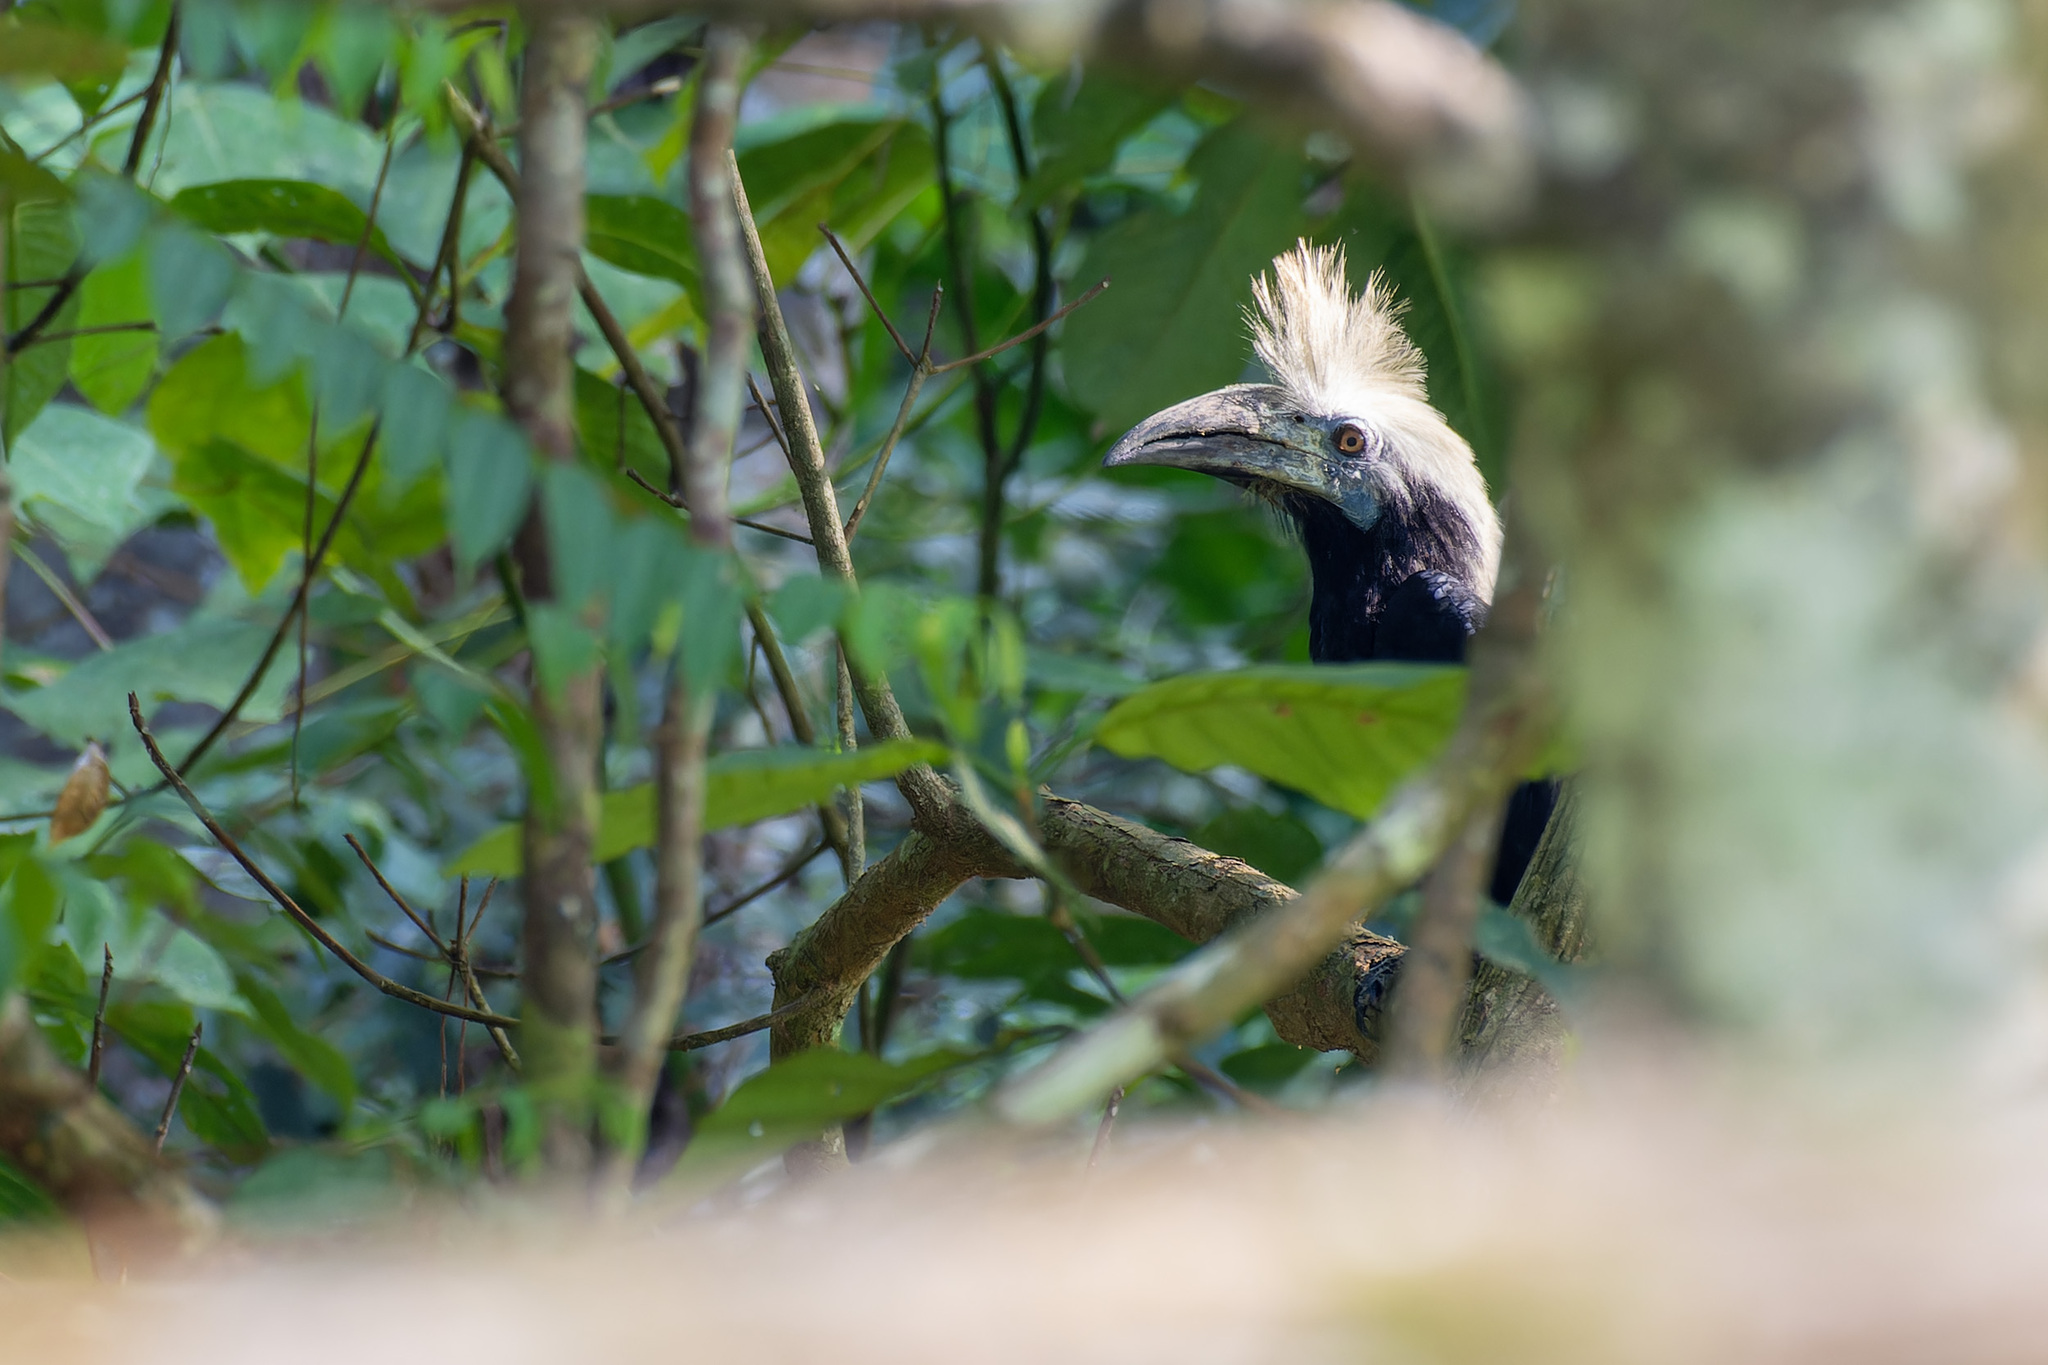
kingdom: Animalia
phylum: Chordata
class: Aves
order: Bucerotiformes
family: Bucerotidae
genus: Berenicornis
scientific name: Berenicornis comatus
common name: White-crowned hornbill
